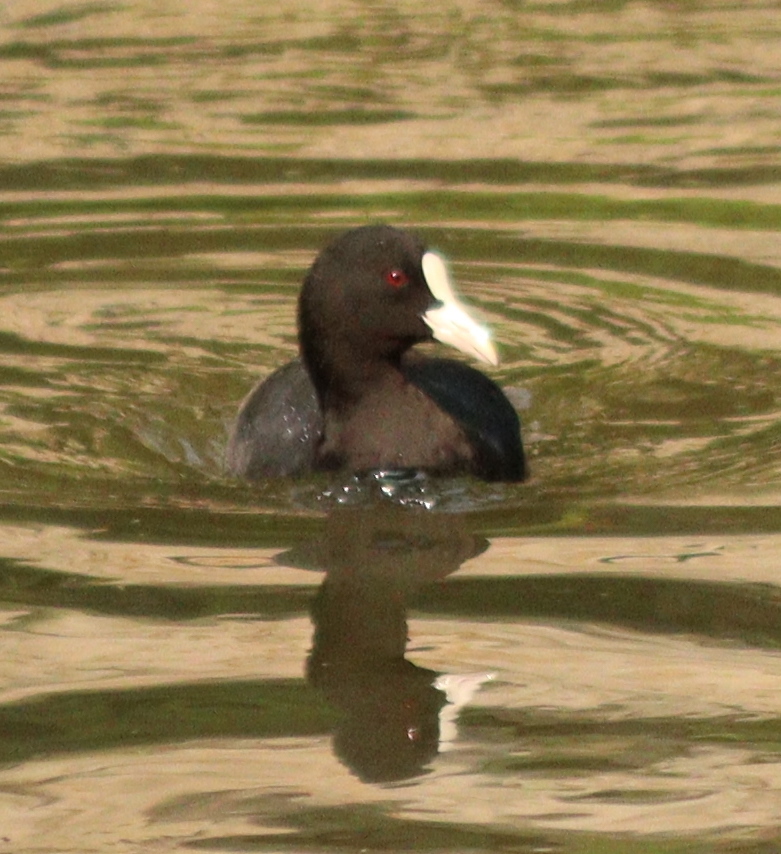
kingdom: Animalia
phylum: Chordata
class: Aves
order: Gruiformes
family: Rallidae
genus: Fulica
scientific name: Fulica atra
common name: Eurasian coot
